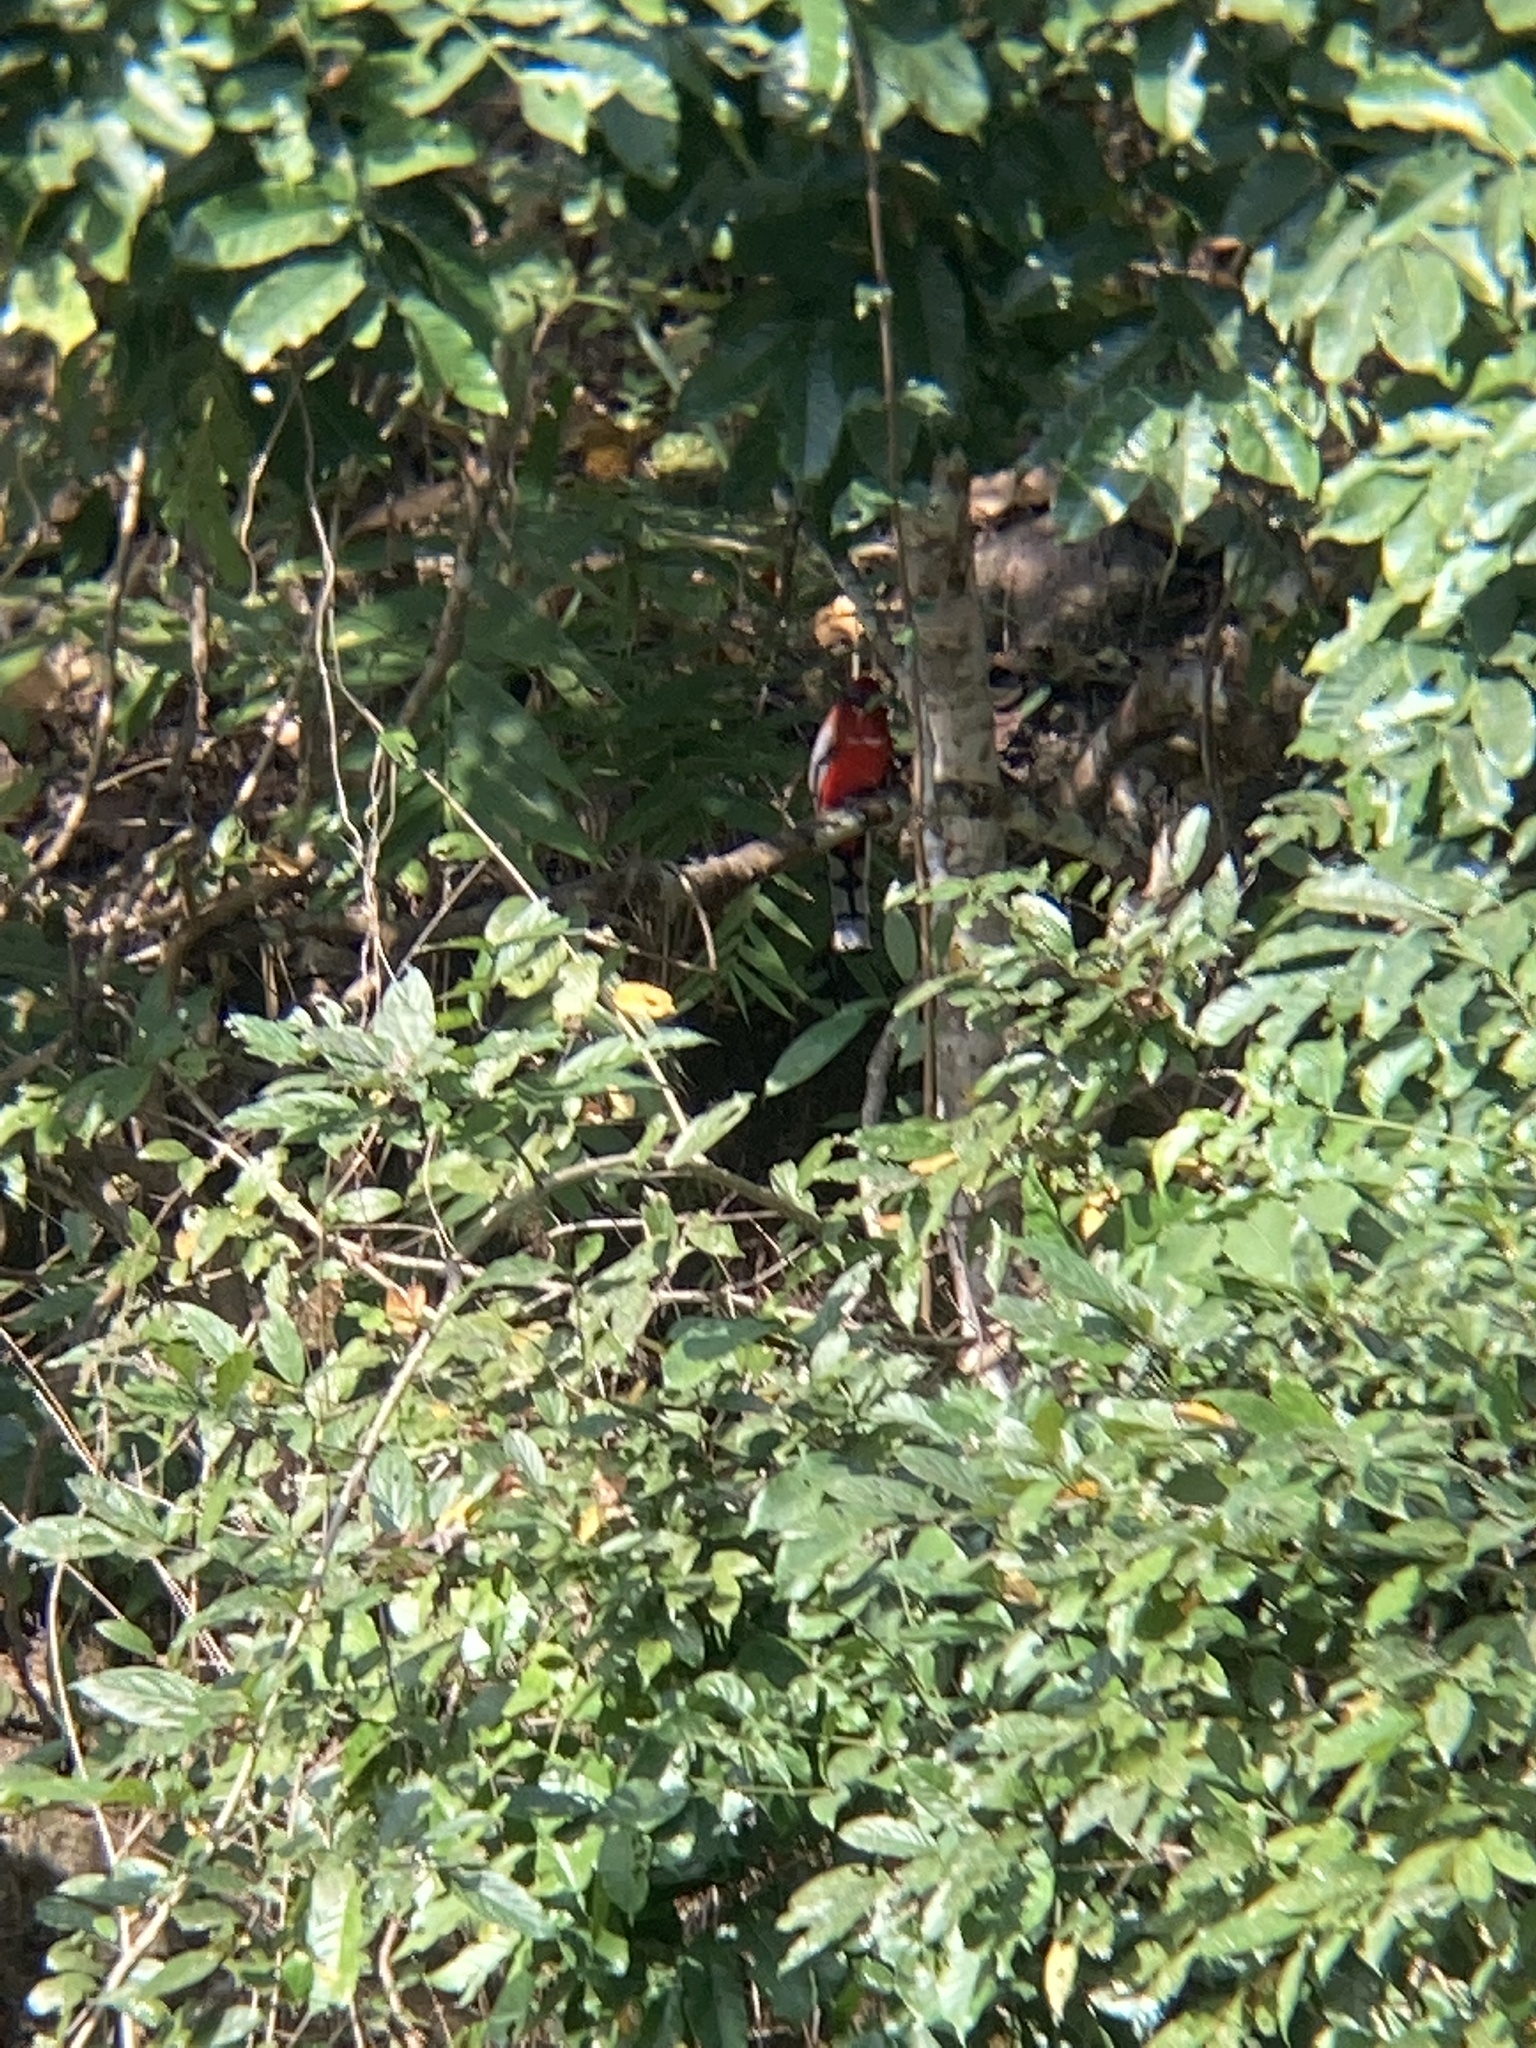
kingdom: Animalia
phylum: Chordata
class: Aves
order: Trogoniformes
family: Trogonidae
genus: Harpactes
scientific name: Harpactes erythrocephalus
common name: Red-headed trogon
